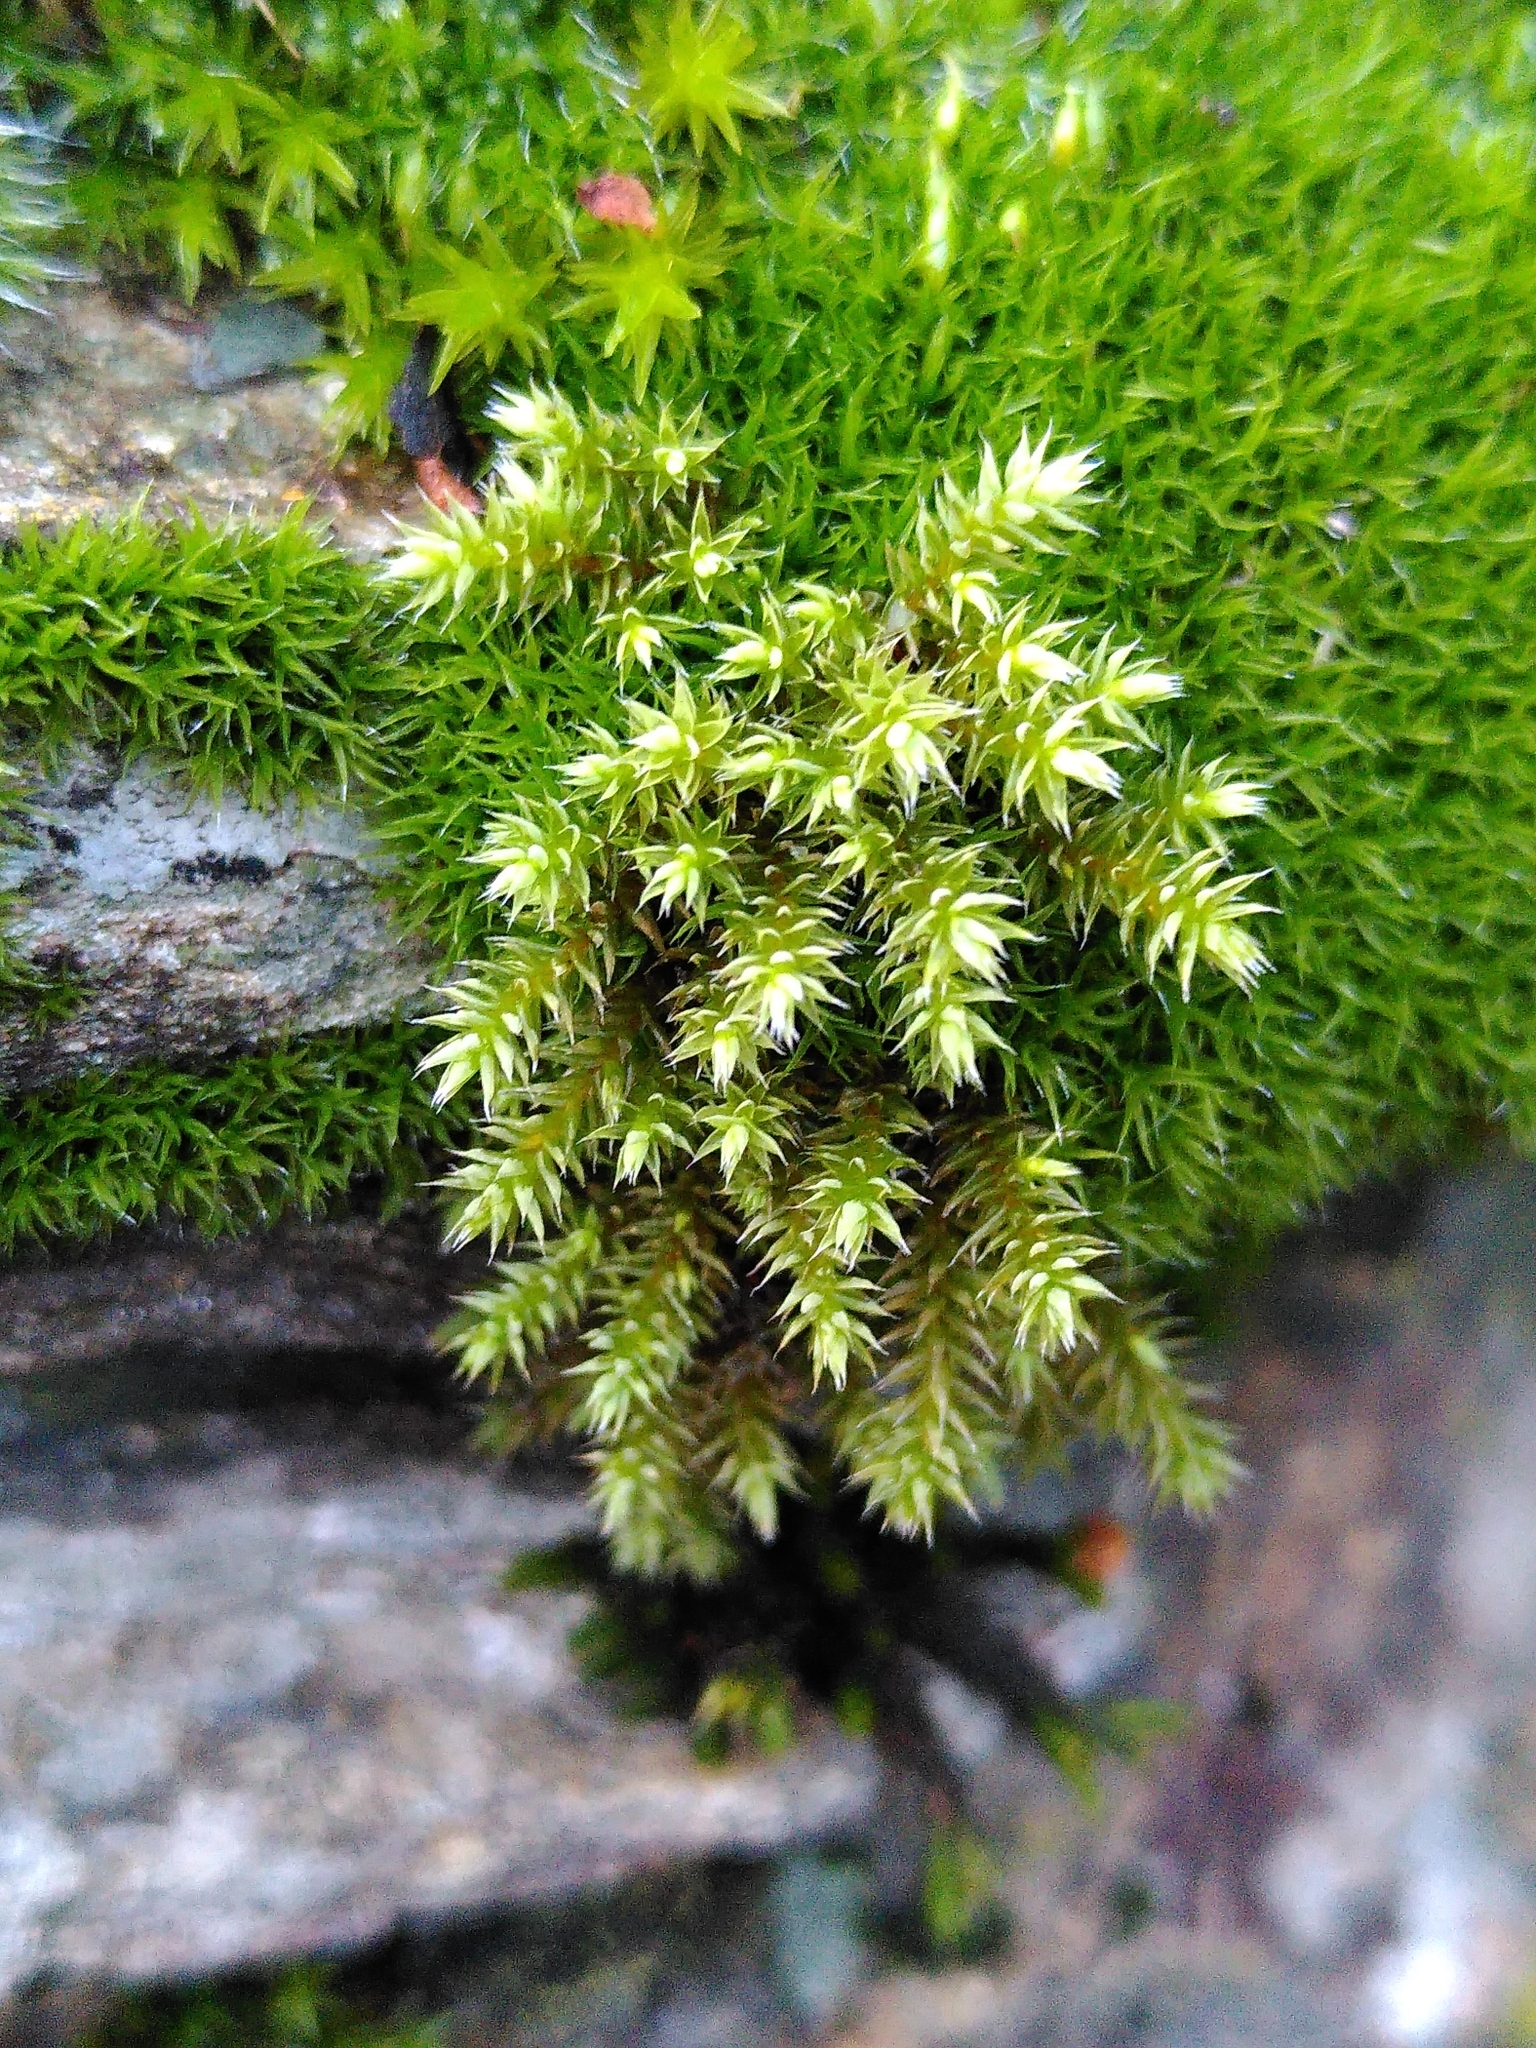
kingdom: Plantae
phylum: Bryophyta
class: Bryopsida
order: Hedwigiales
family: Hedwigiaceae
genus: Hedwigia
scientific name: Hedwigia ciliata
